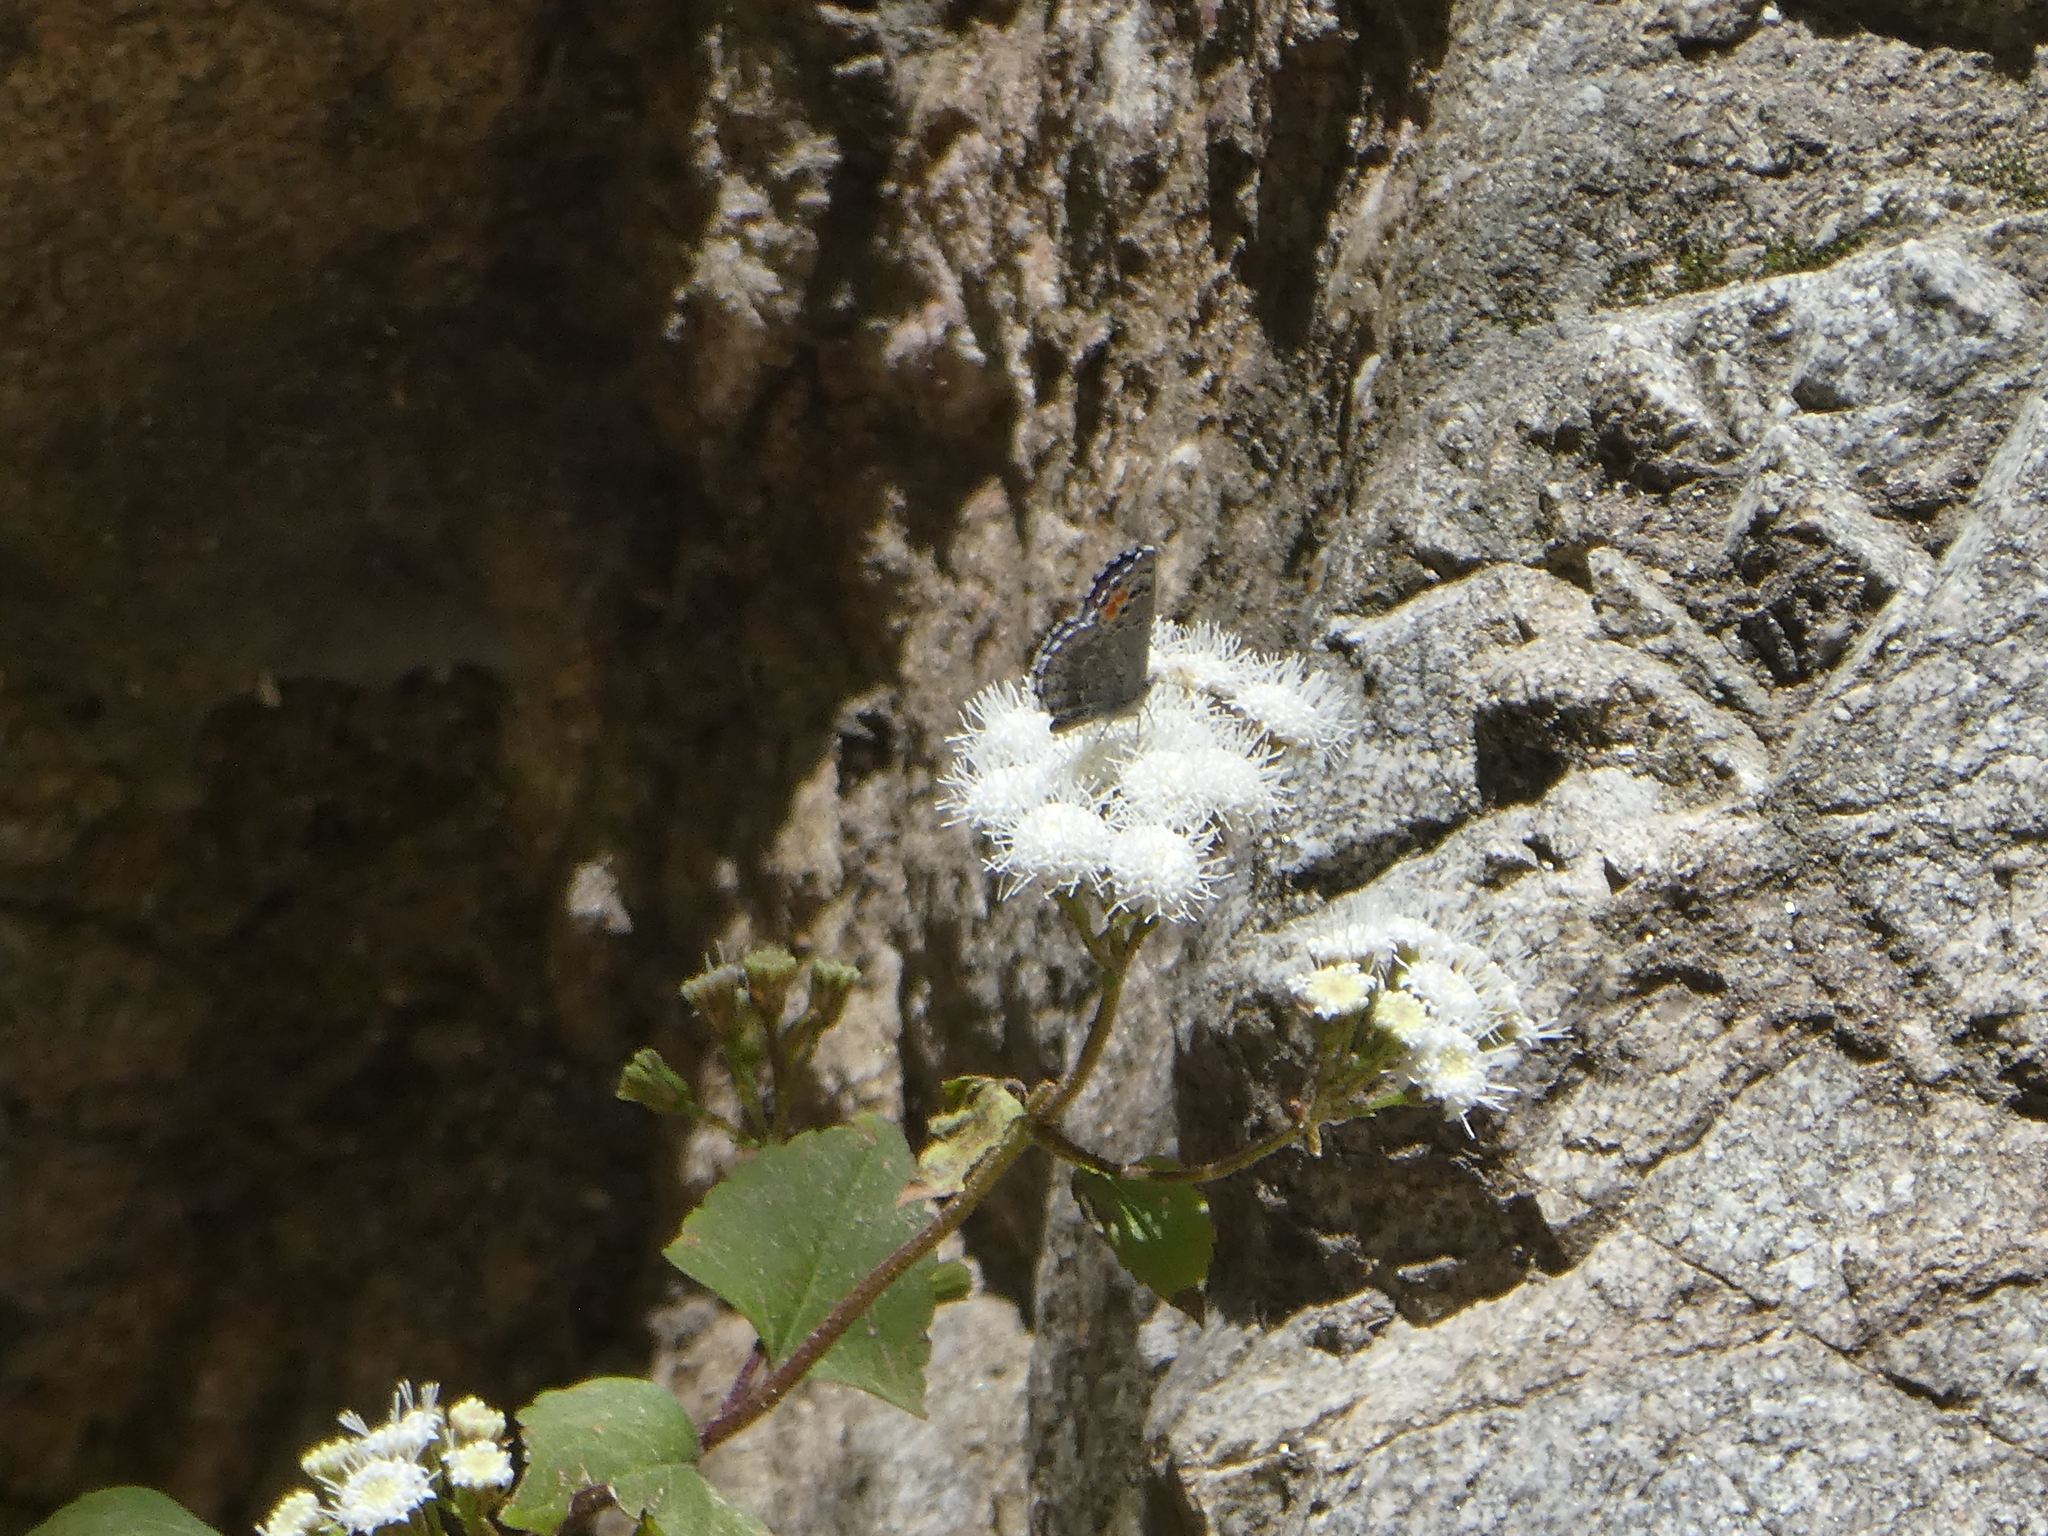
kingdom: Animalia
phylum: Arthropoda
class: Insecta
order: Lepidoptera
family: Lycaenidae
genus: Philotes
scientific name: Philotes sonorensis
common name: Sonoran blue
